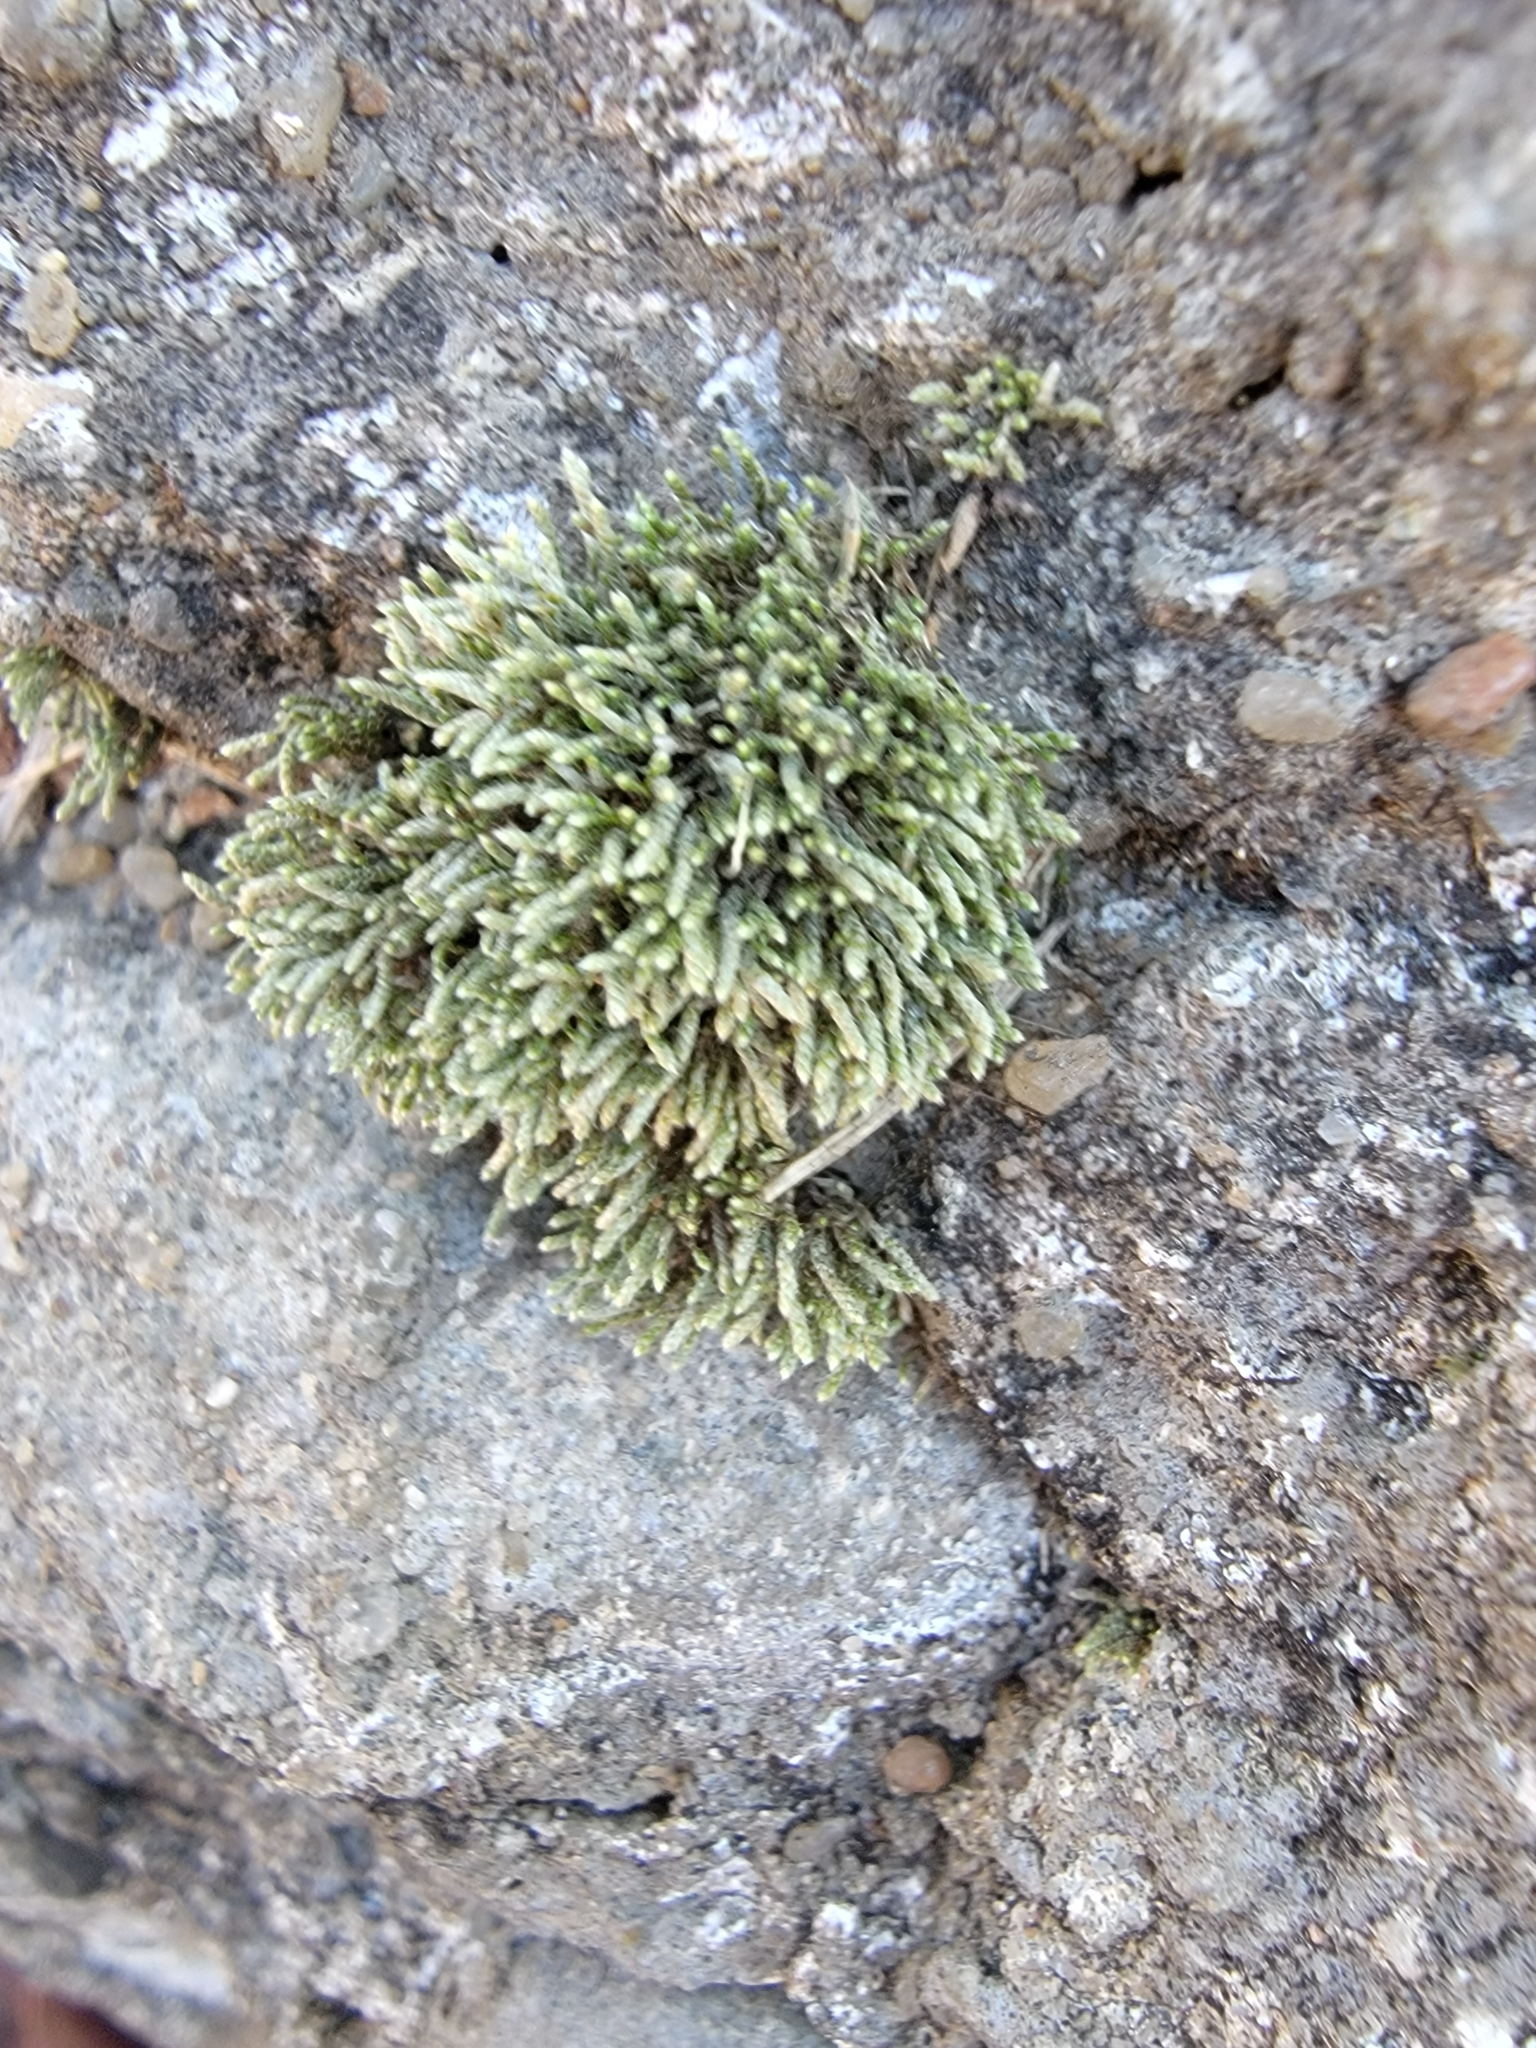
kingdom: Plantae
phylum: Bryophyta
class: Bryopsida
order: Bryales
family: Bryaceae
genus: Bryum
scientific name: Bryum argenteum
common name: Silver-moss
